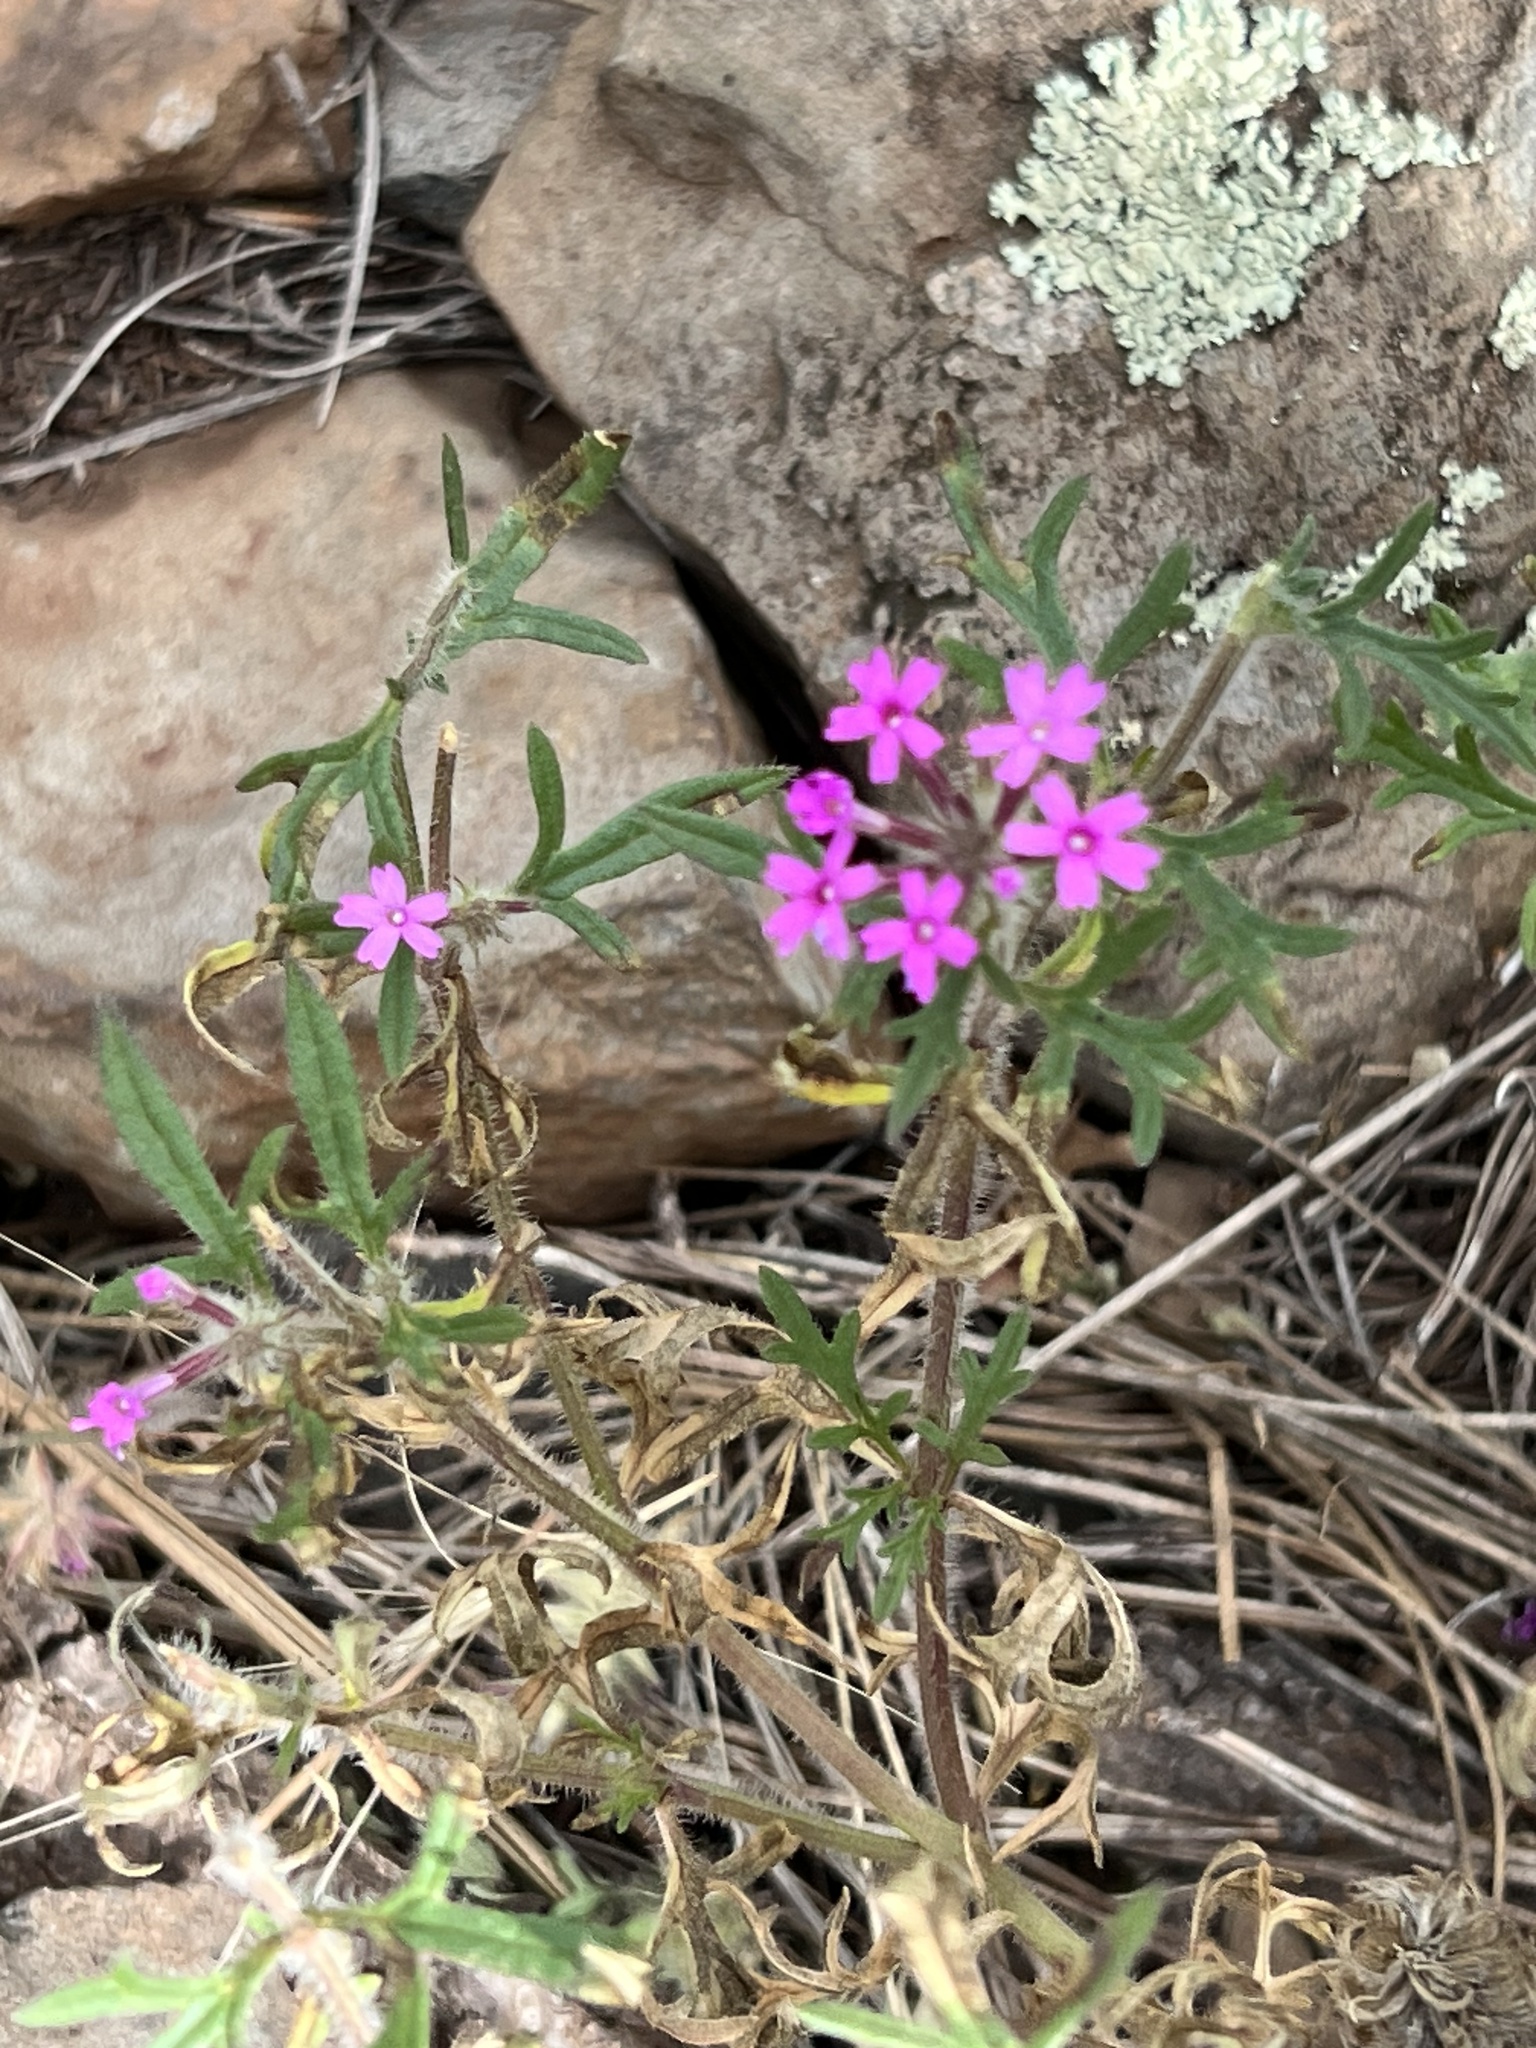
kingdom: Plantae
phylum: Tracheophyta
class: Magnoliopsida
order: Lamiales
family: Verbenaceae
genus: Verbena
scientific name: Verbena chiricahensis
